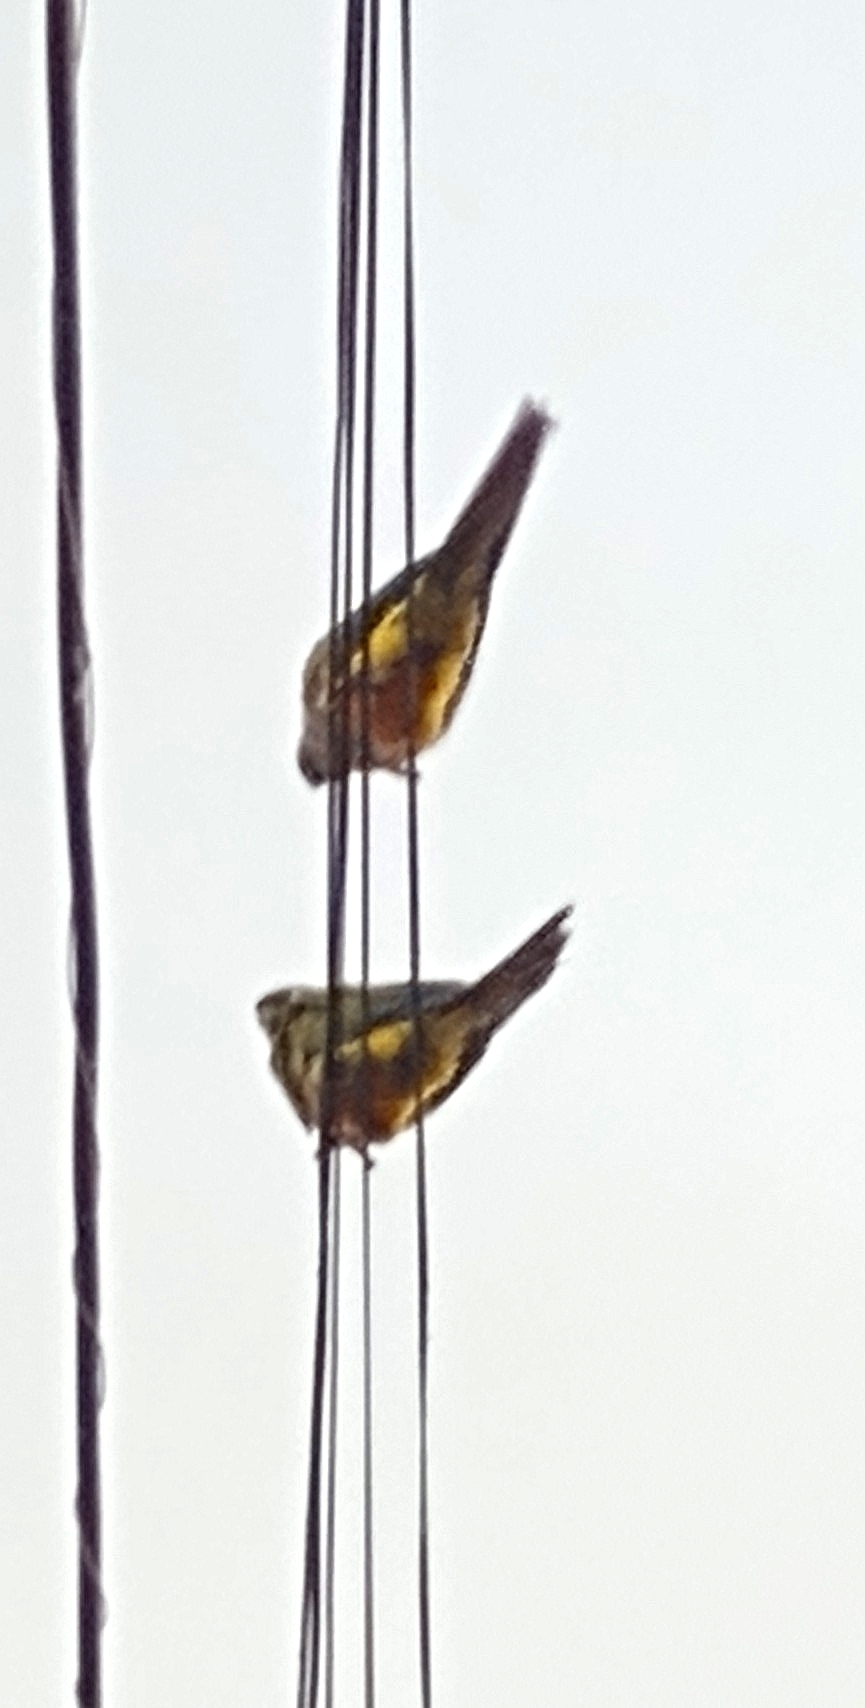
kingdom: Animalia
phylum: Chordata
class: Aves
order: Psittaciformes
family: Psittacidae
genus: Cyanoliseus
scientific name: Cyanoliseus patagonus
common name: Burrowing parrot
